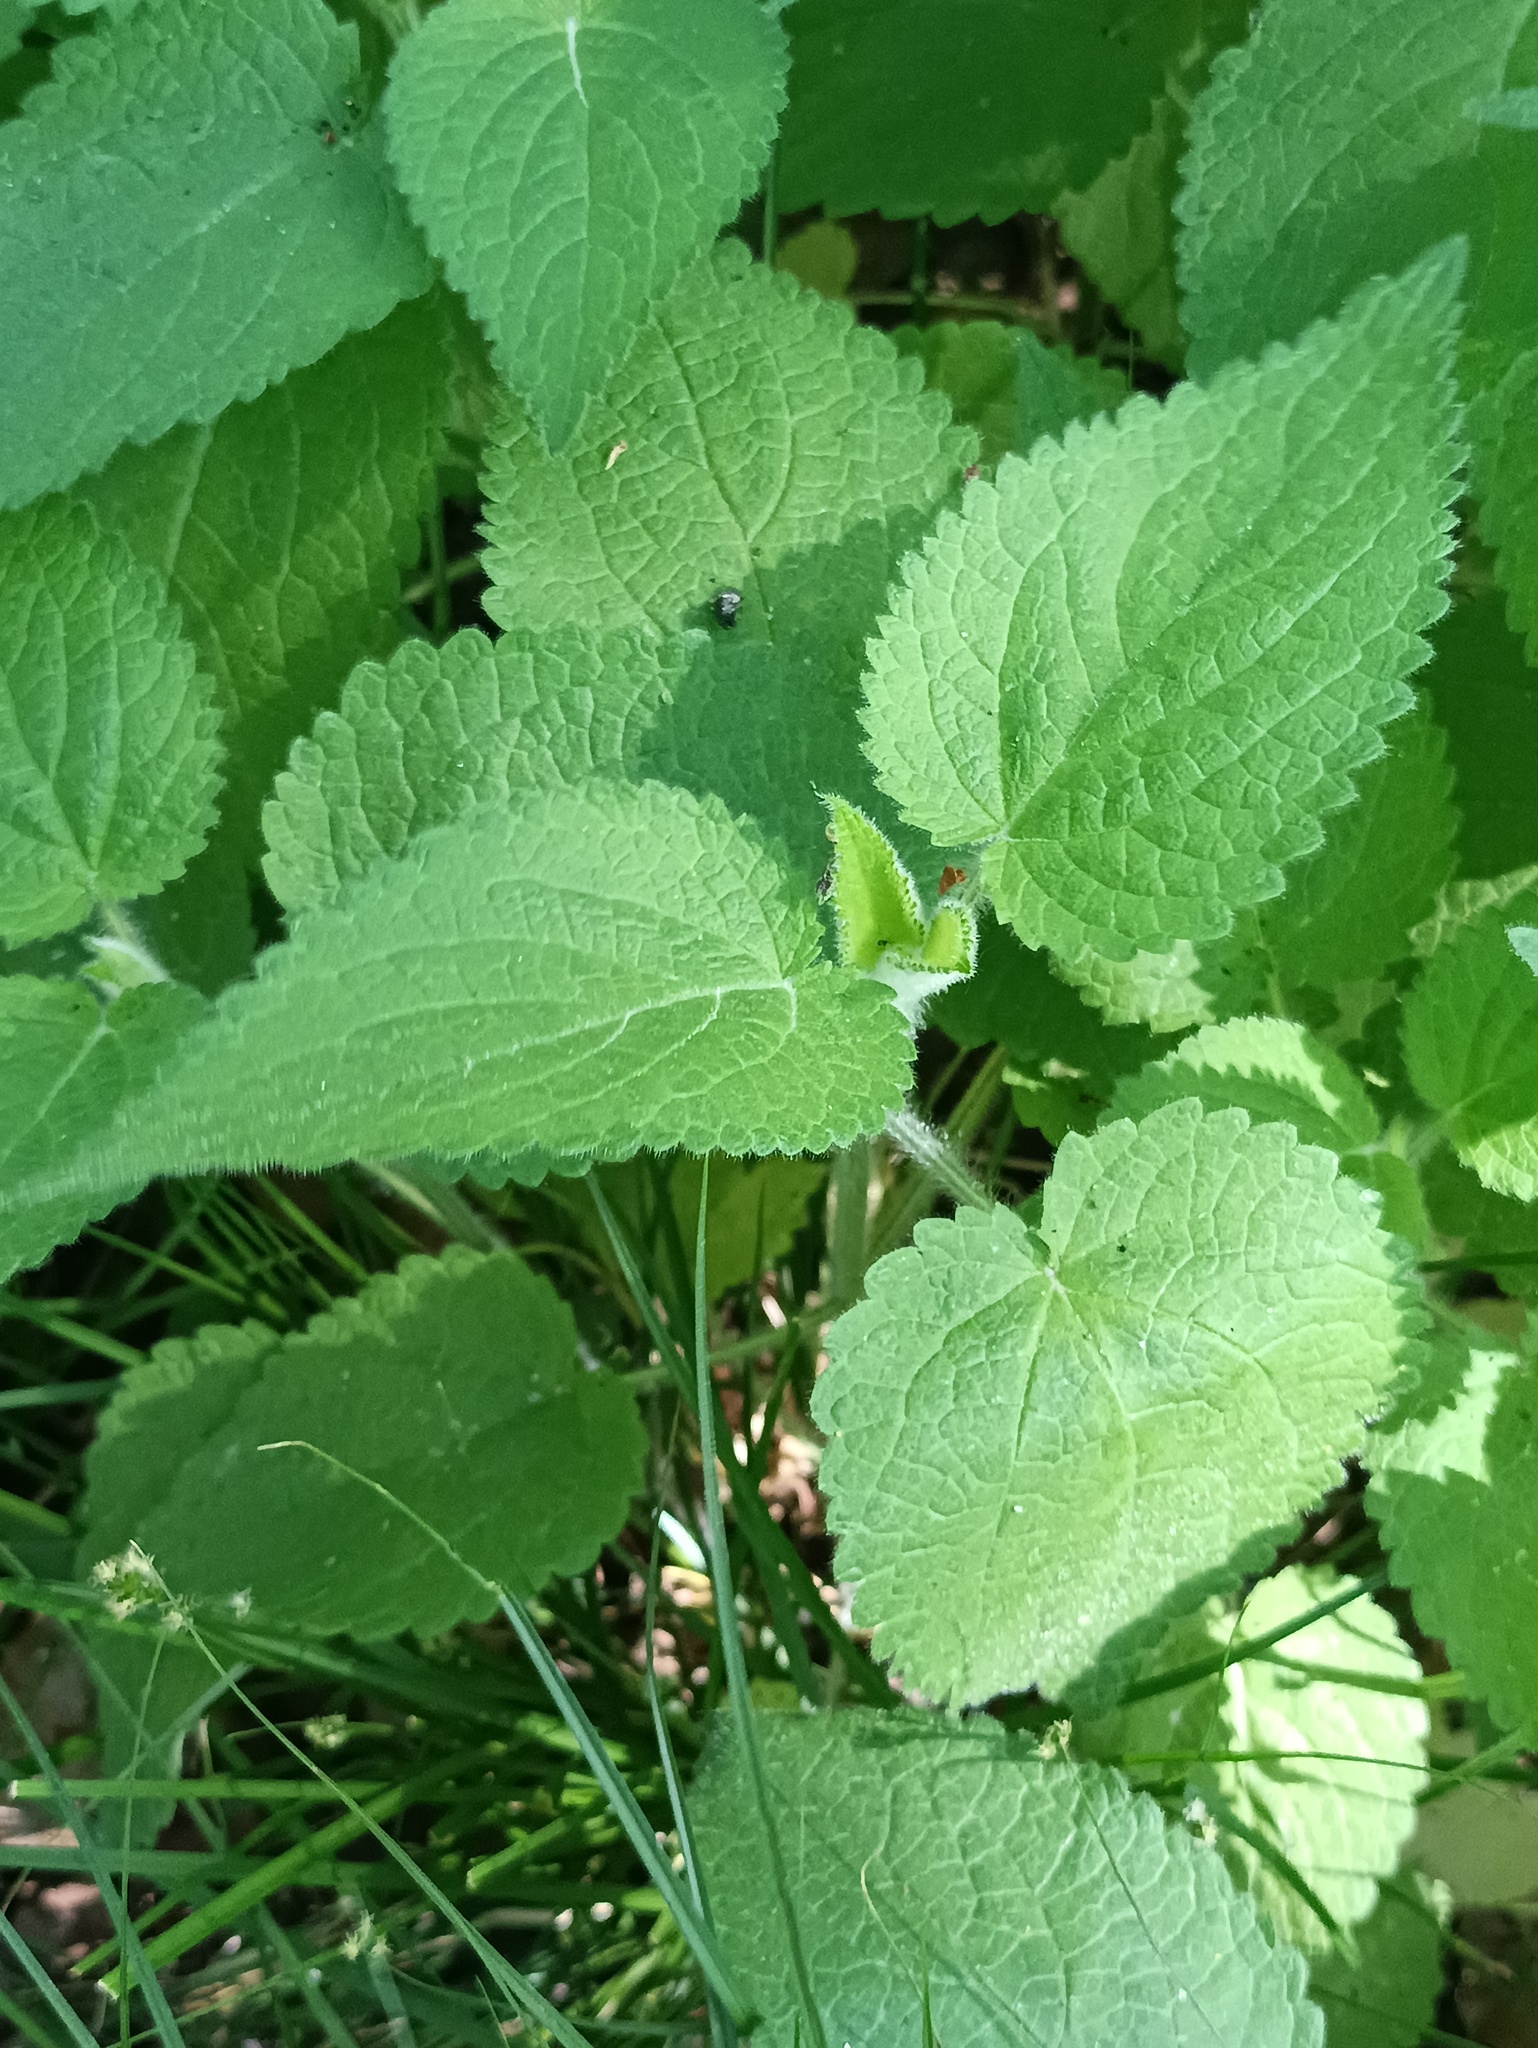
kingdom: Plantae
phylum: Tracheophyta
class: Magnoliopsida
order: Lamiales
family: Lamiaceae
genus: Stachys
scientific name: Stachys sylvatica
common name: Hedge woundwort
